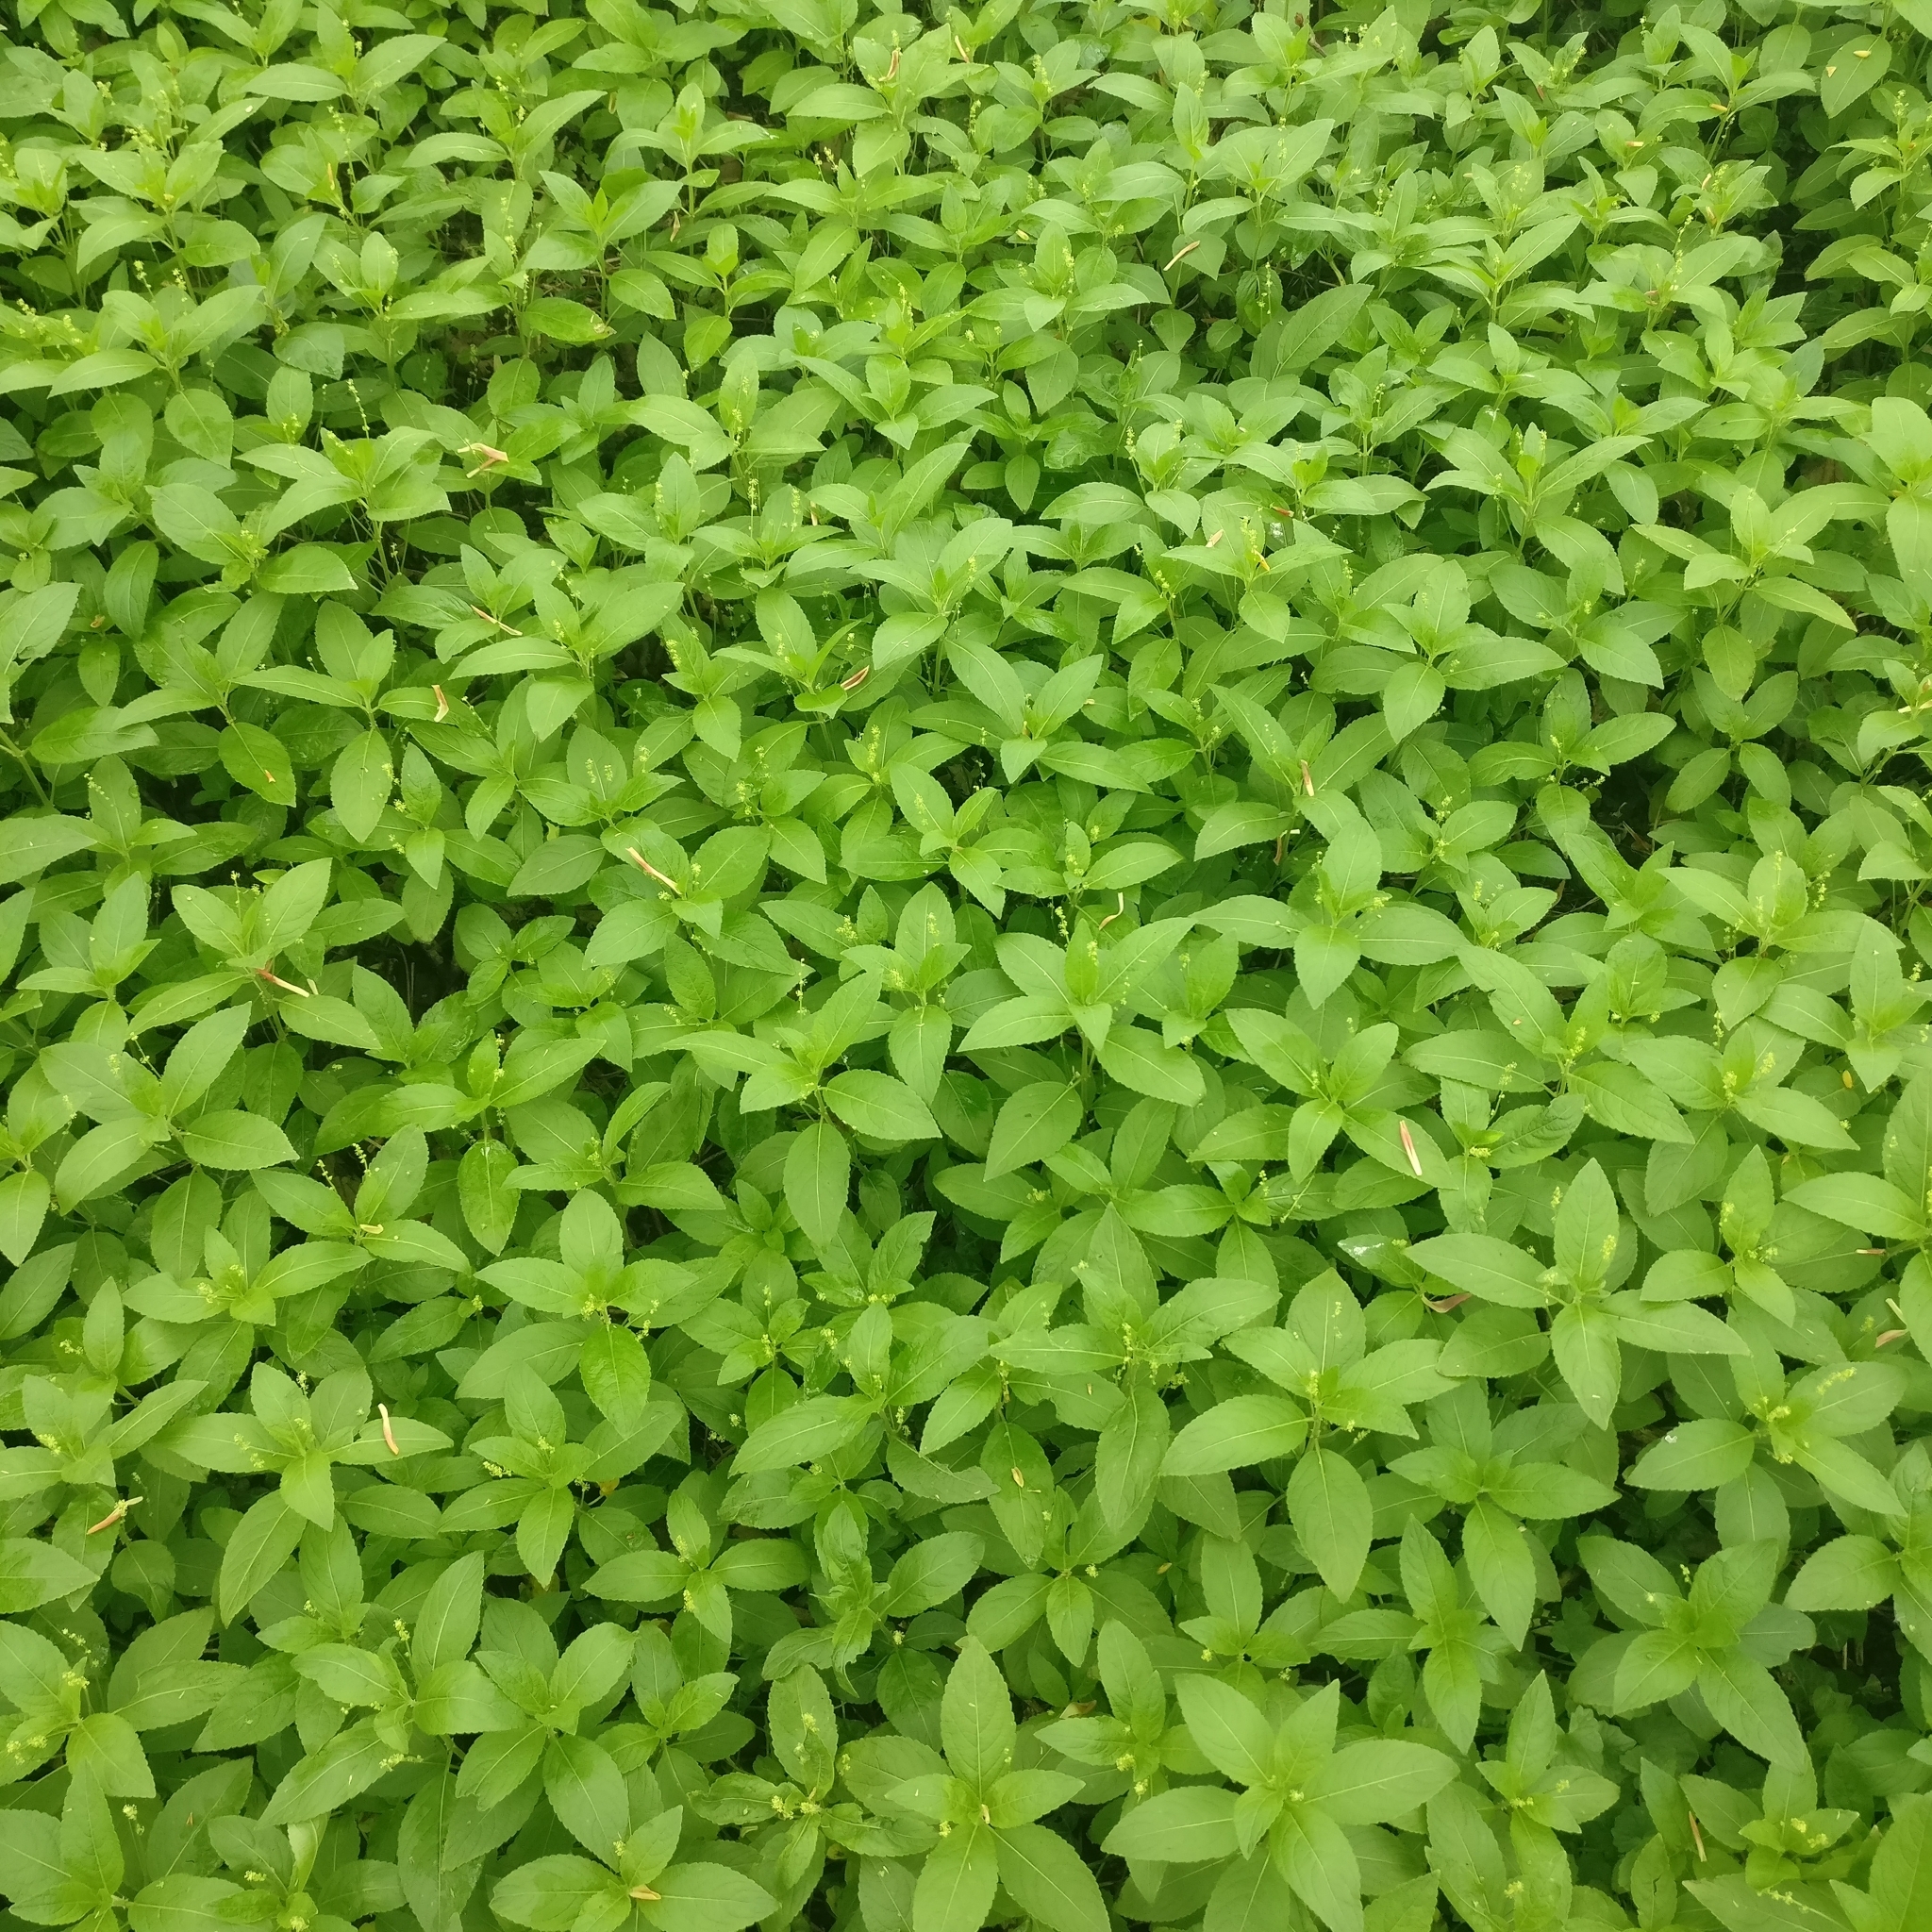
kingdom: Plantae
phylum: Tracheophyta
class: Magnoliopsida
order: Malpighiales
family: Euphorbiaceae
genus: Mercurialis
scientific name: Mercurialis perennis
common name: Dog mercury
